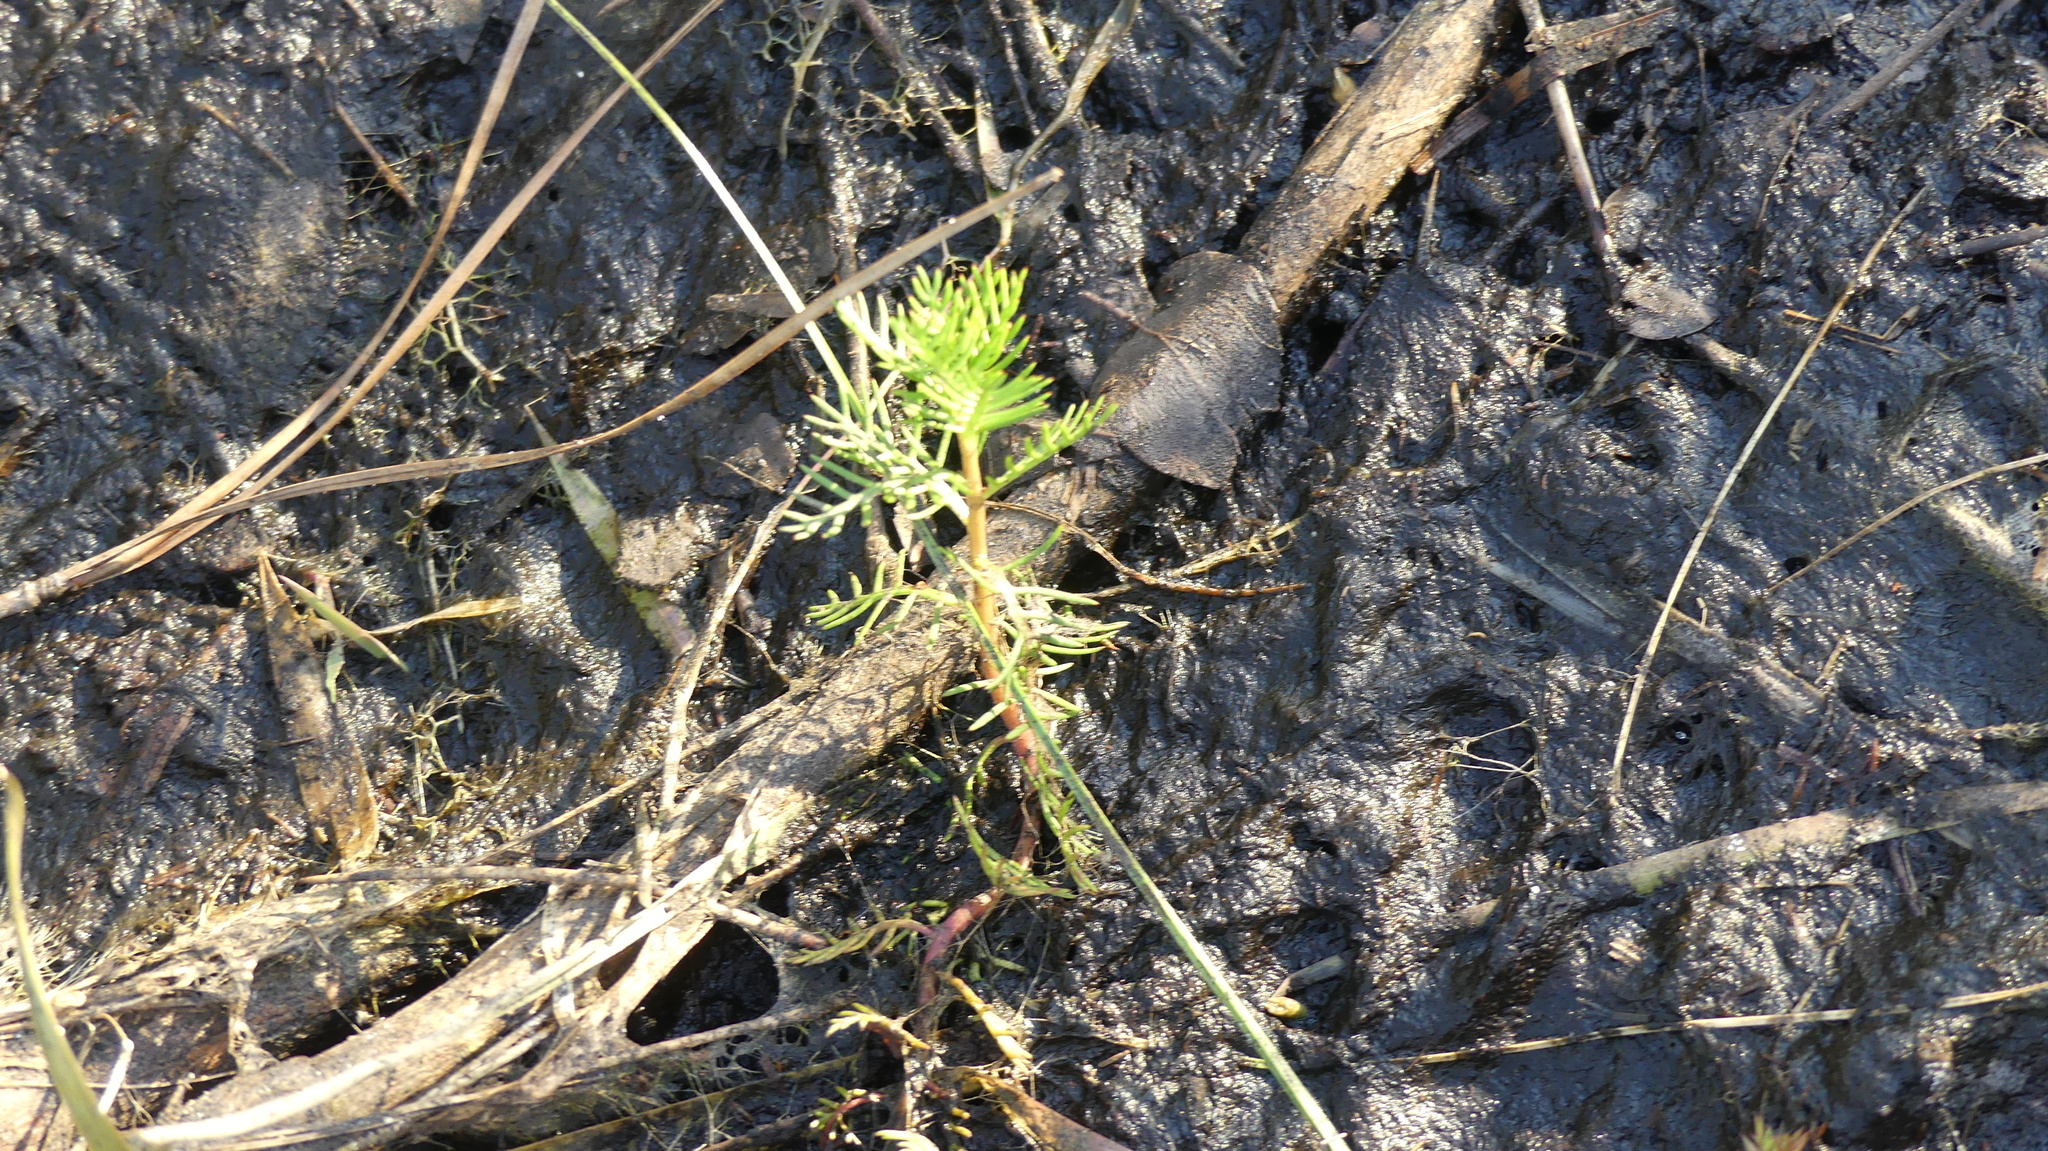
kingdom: Plantae
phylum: Tracheophyta
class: Magnoliopsida
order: Saxifragales
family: Haloragaceae
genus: Proserpinaca
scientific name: Proserpinaca pectinata
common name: Comb-leaved mermaidweed
